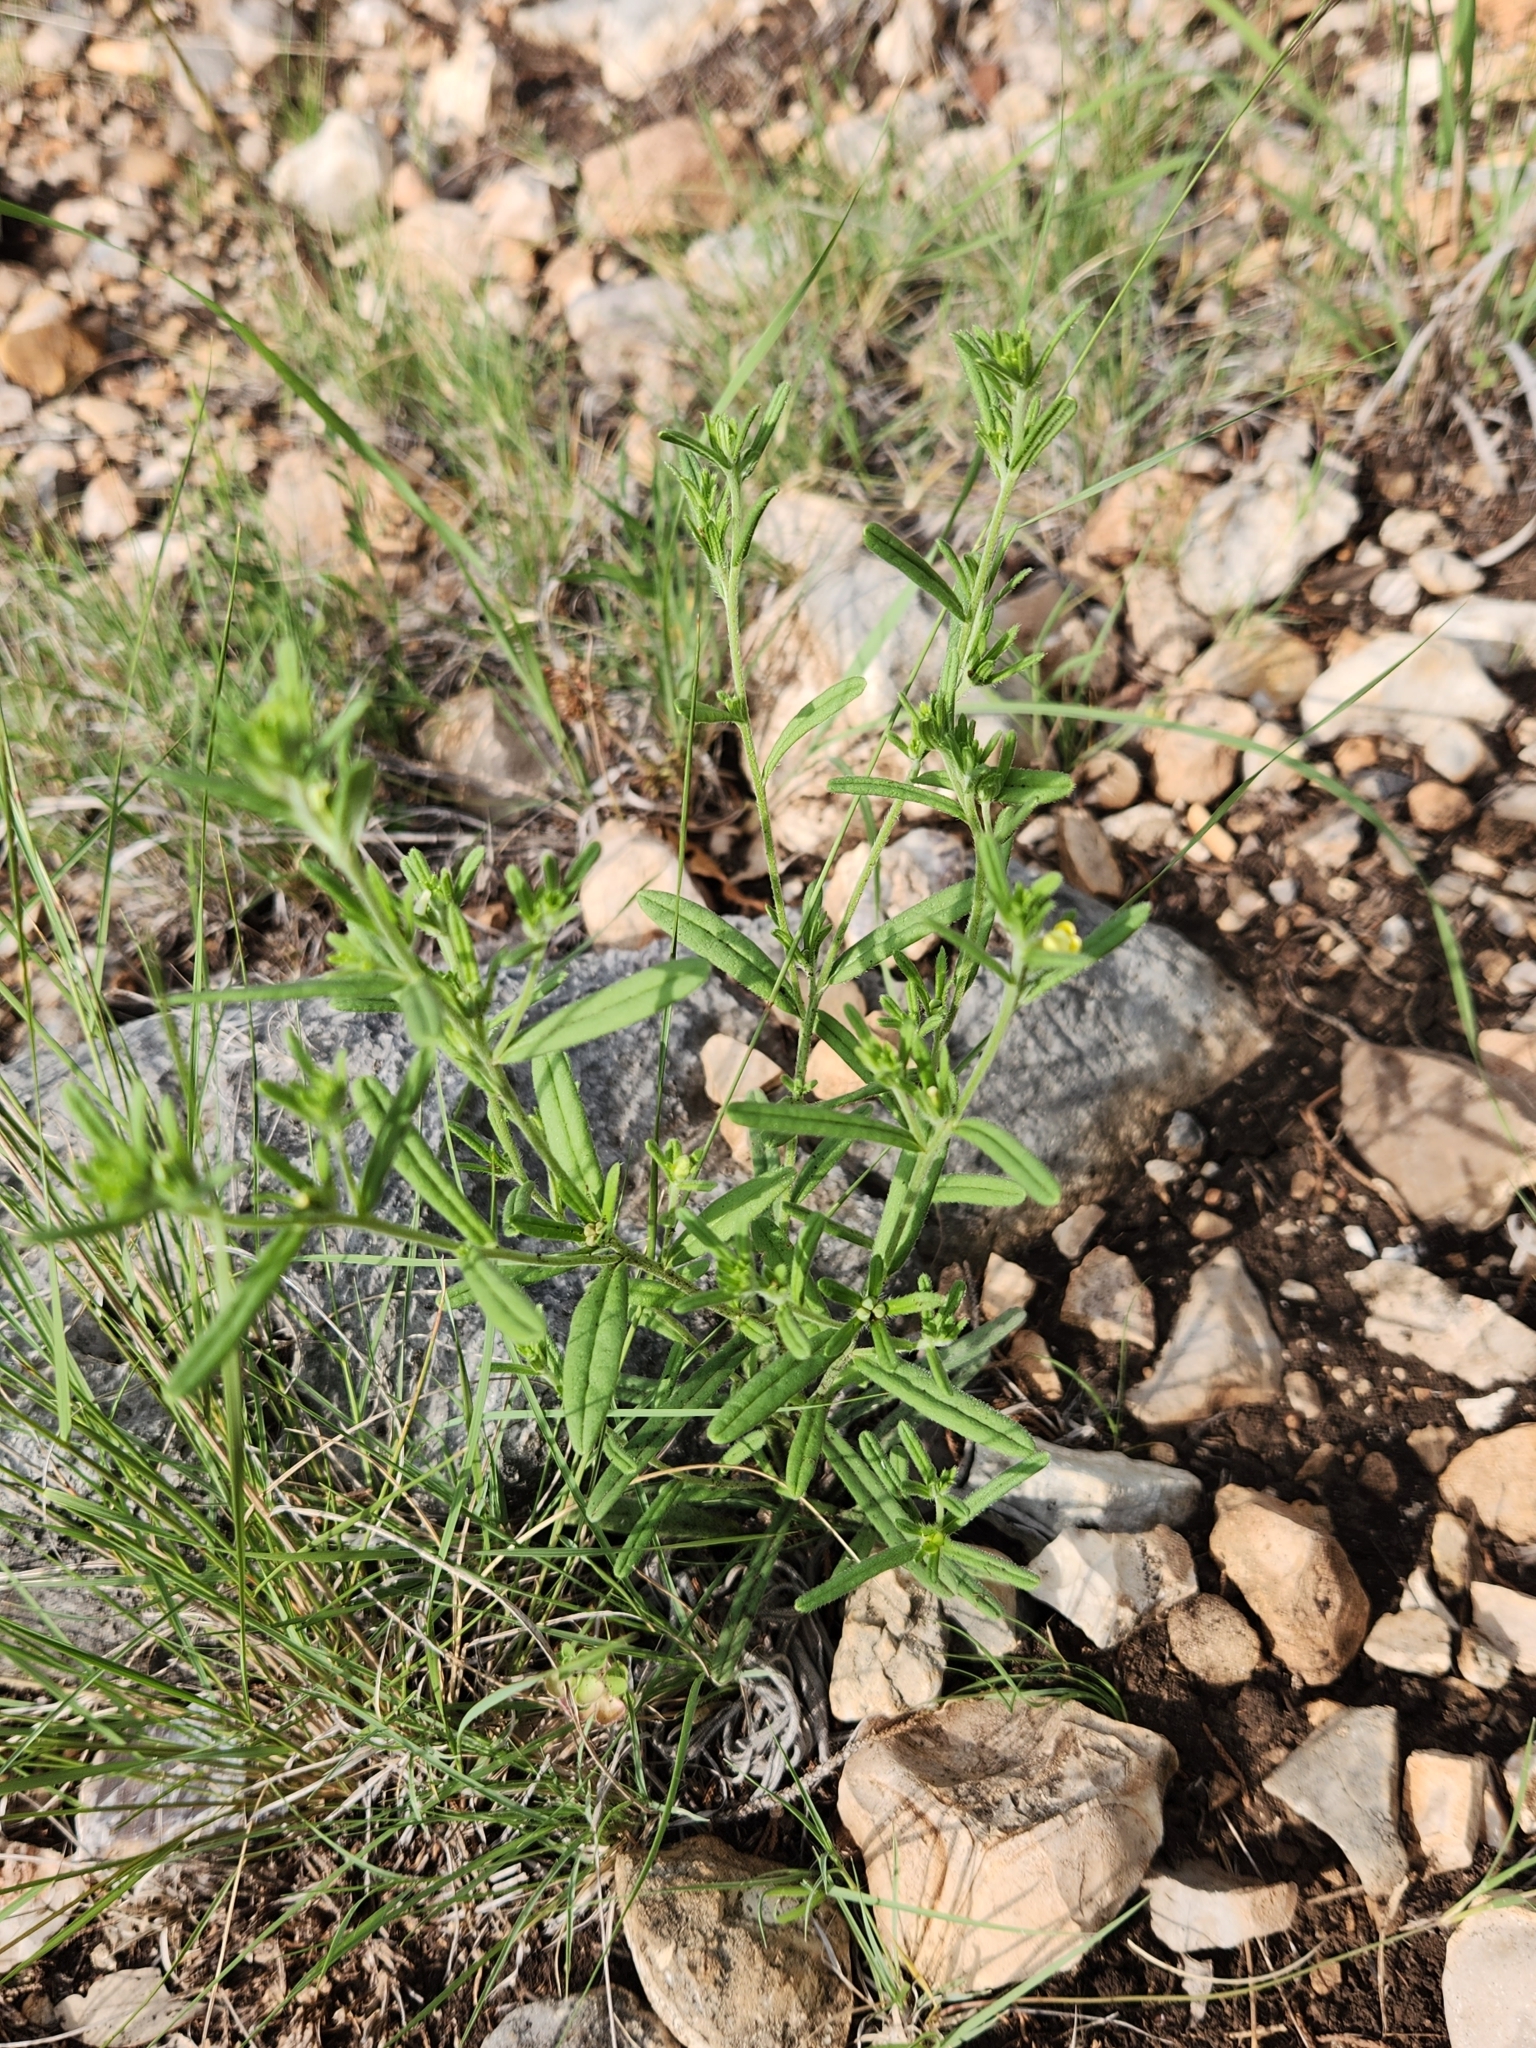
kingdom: Plantae
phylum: Tracheophyta
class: Magnoliopsida
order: Boraginales
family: Boraginaceae
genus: Lithospermum
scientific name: Lithospermum mirabile
